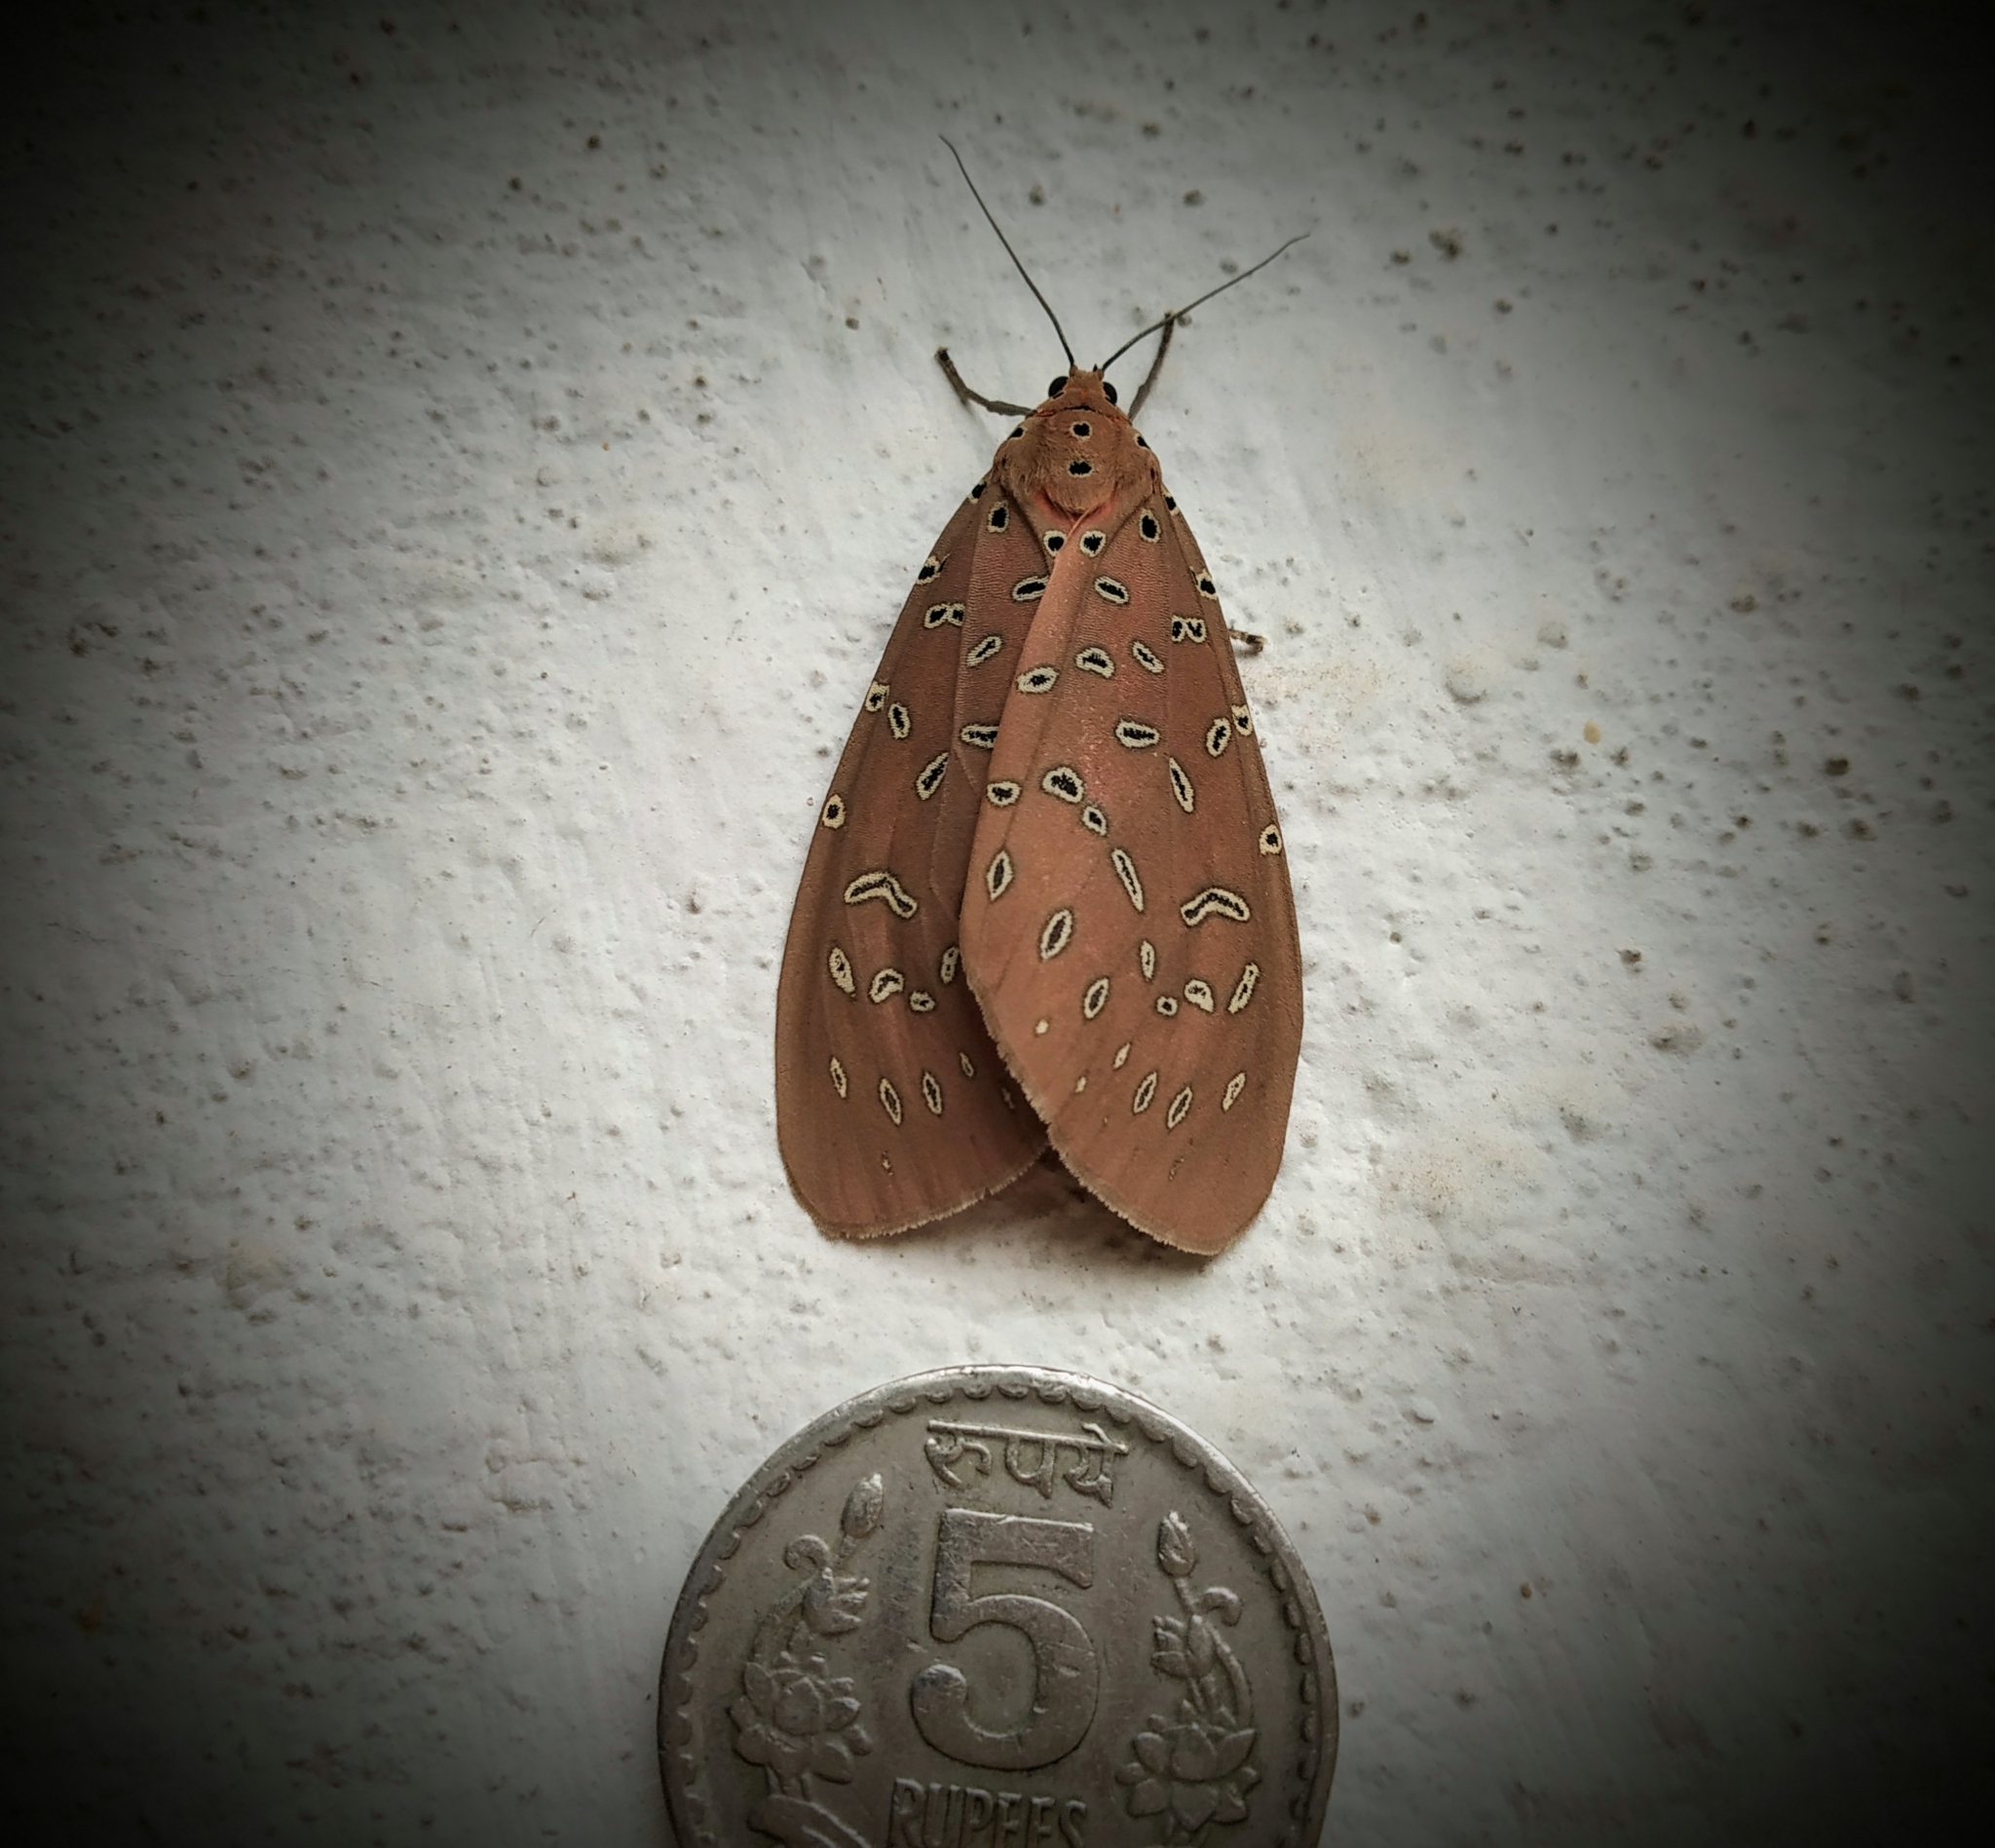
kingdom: Animalia
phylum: Arthropoda
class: Insecta
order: Lepidoptera
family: Erebidae
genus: Mangina
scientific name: Mangina argus
